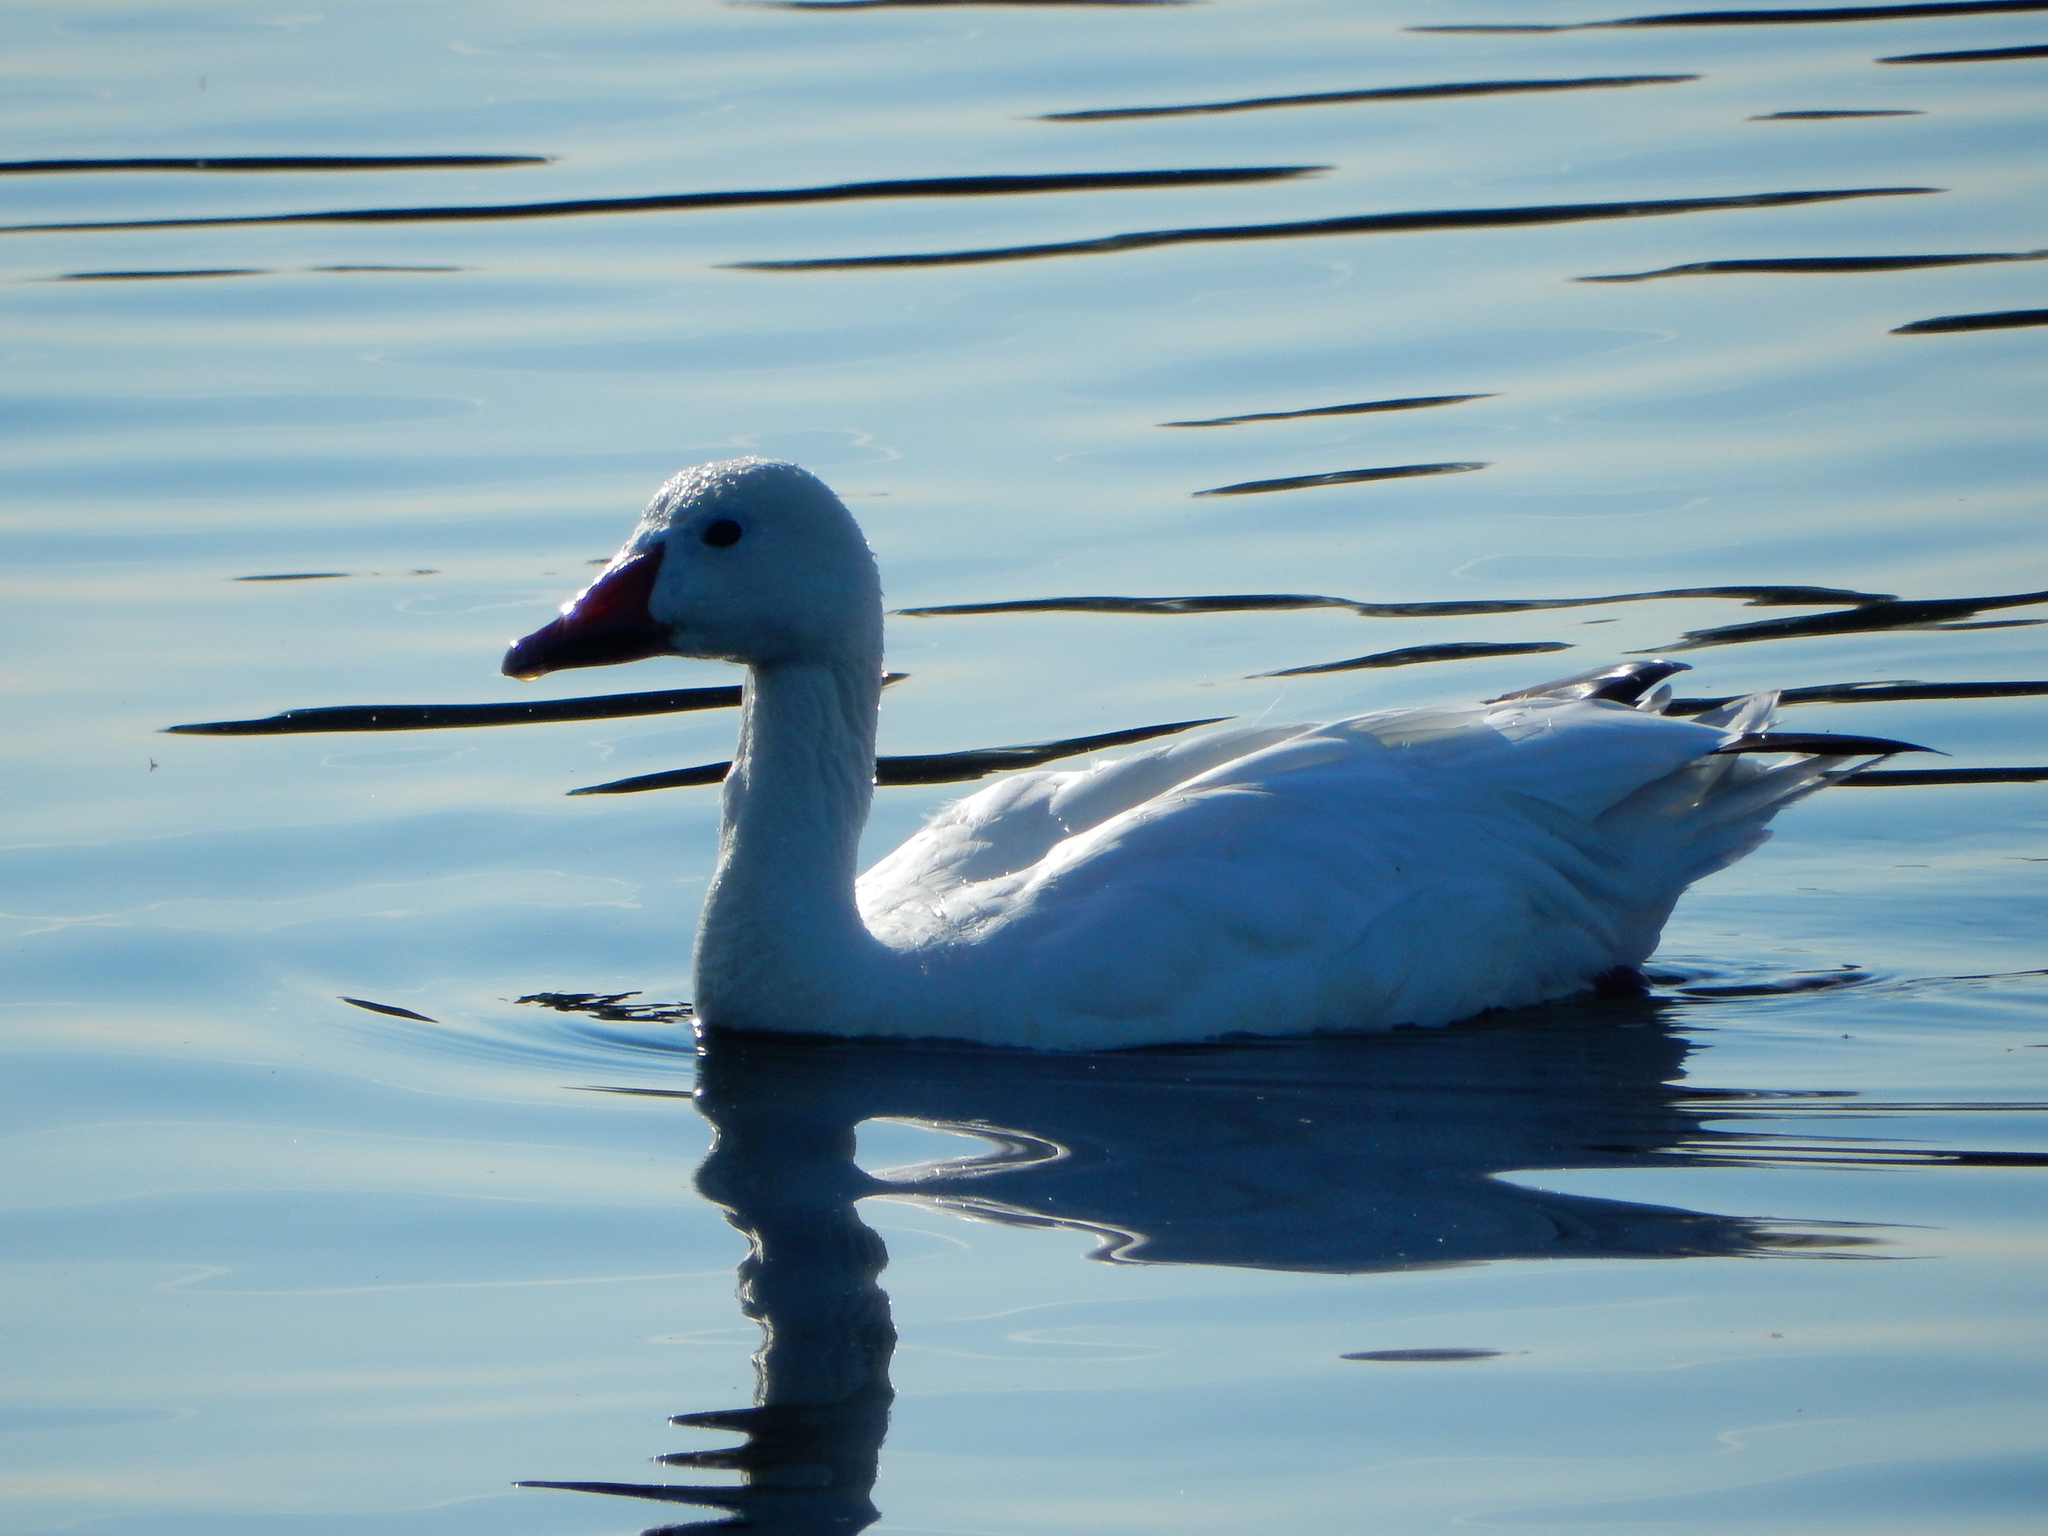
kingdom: Animalia
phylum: Chordata
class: Aves
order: Anseriformes
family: Anatidae
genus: Anser
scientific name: Anser caerulescens
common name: Snow goose
